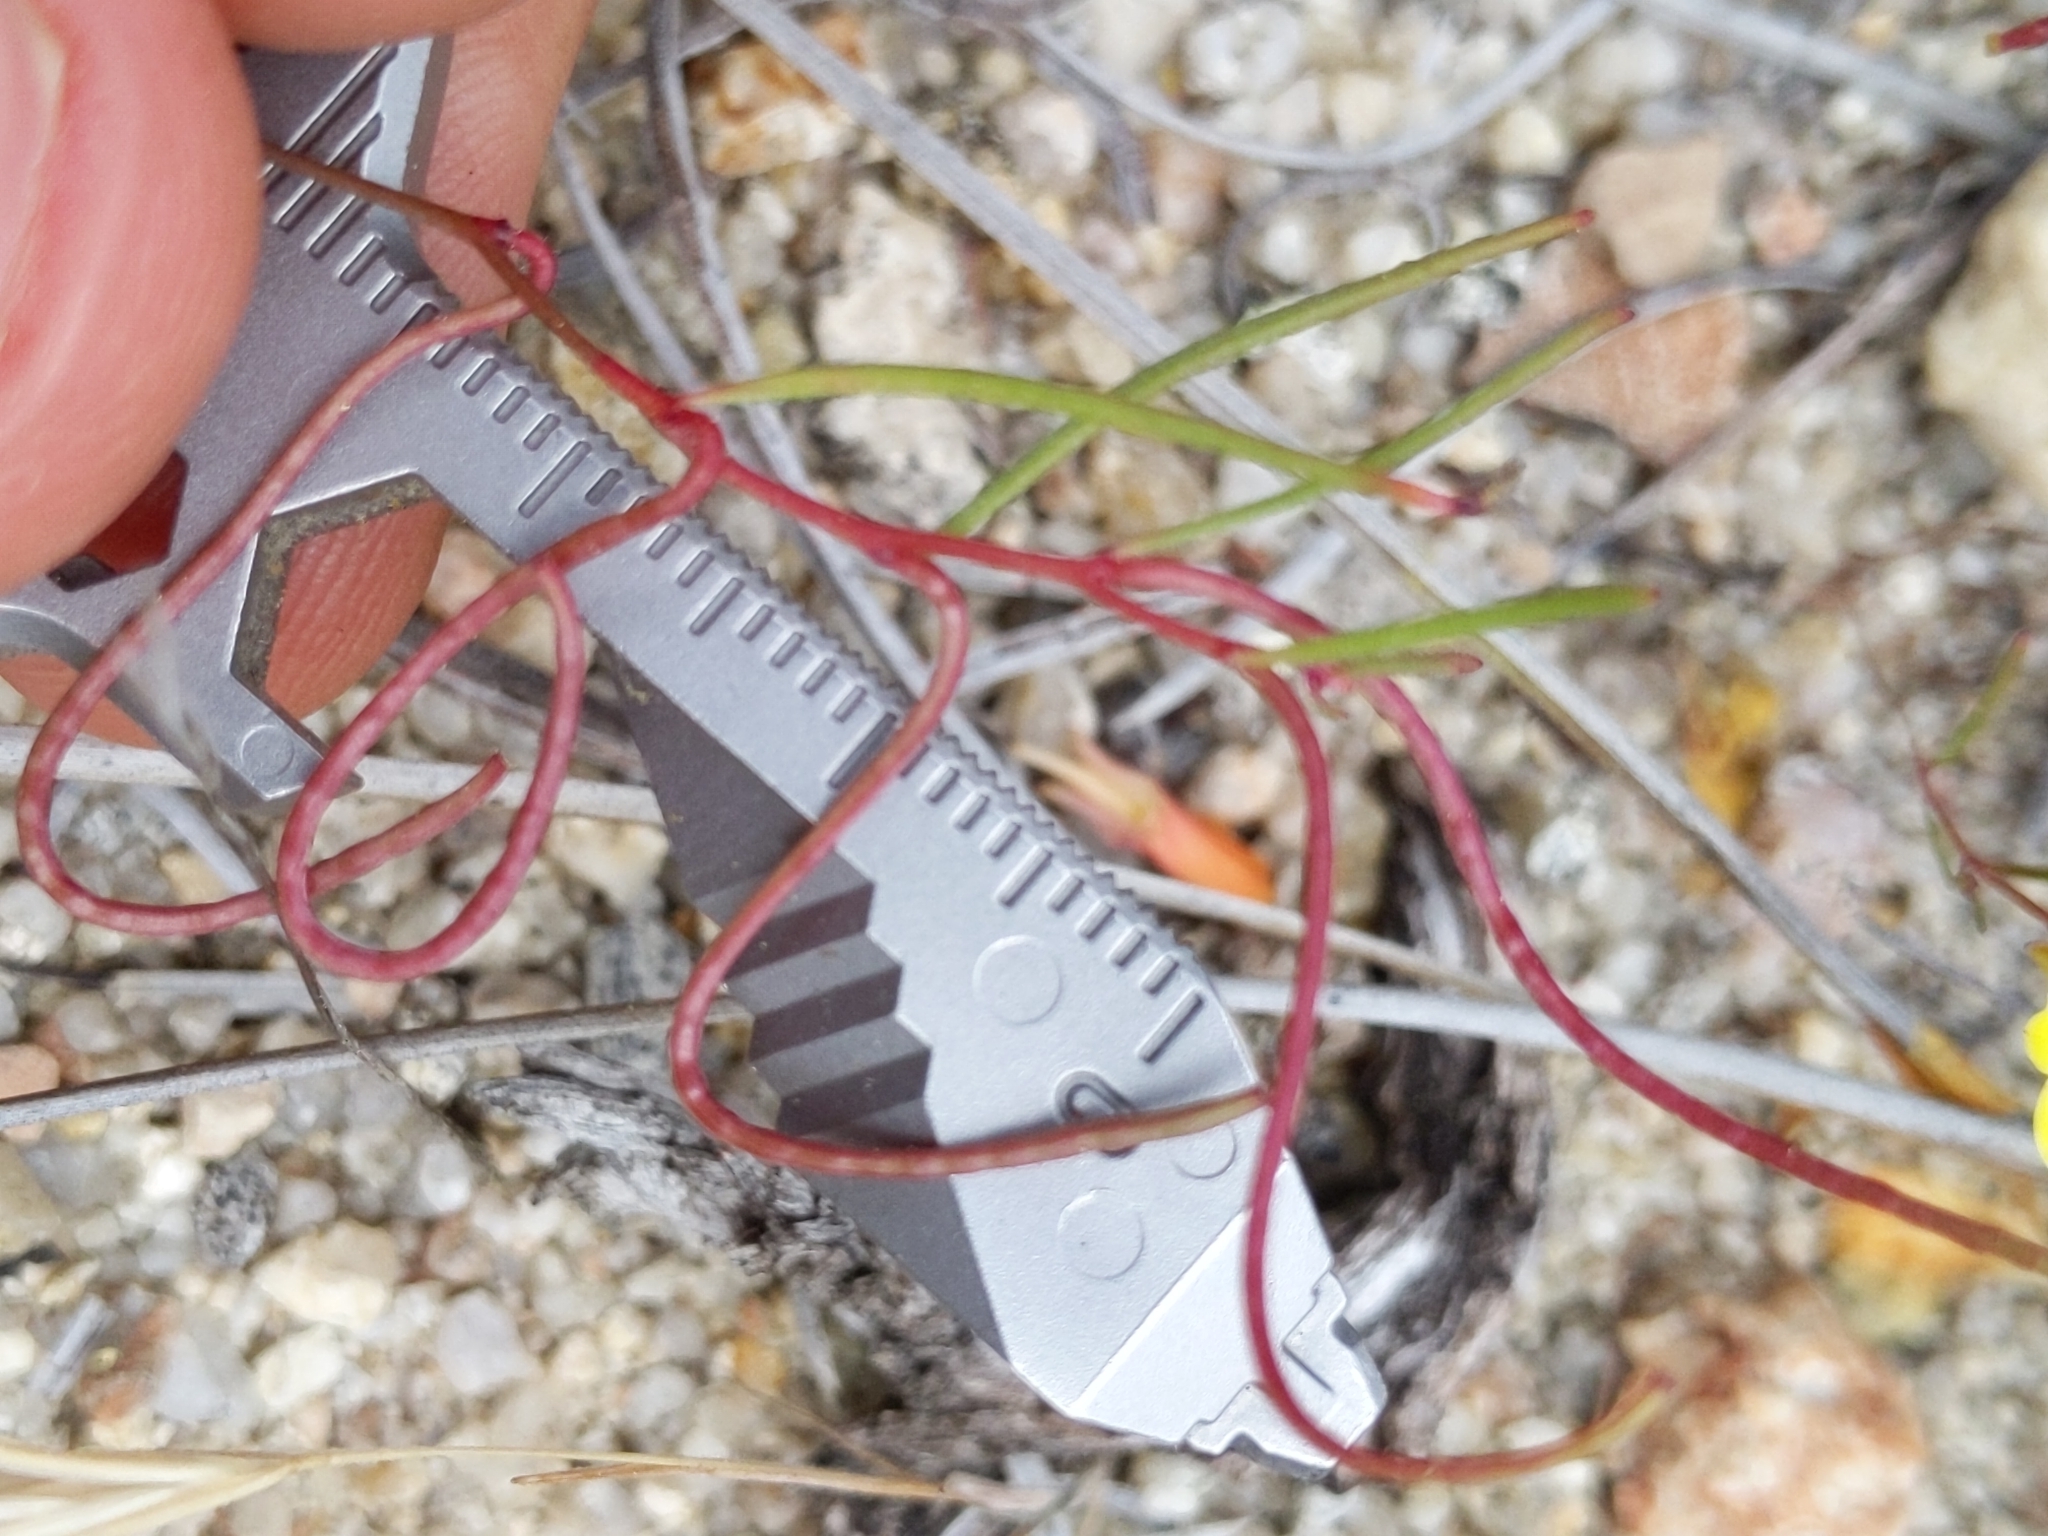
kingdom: Plantae
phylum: Tracheophyta
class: Magnoliopsida
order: Myrtales
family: Onagraceae
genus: Camissonia
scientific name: Camissonia campestris
